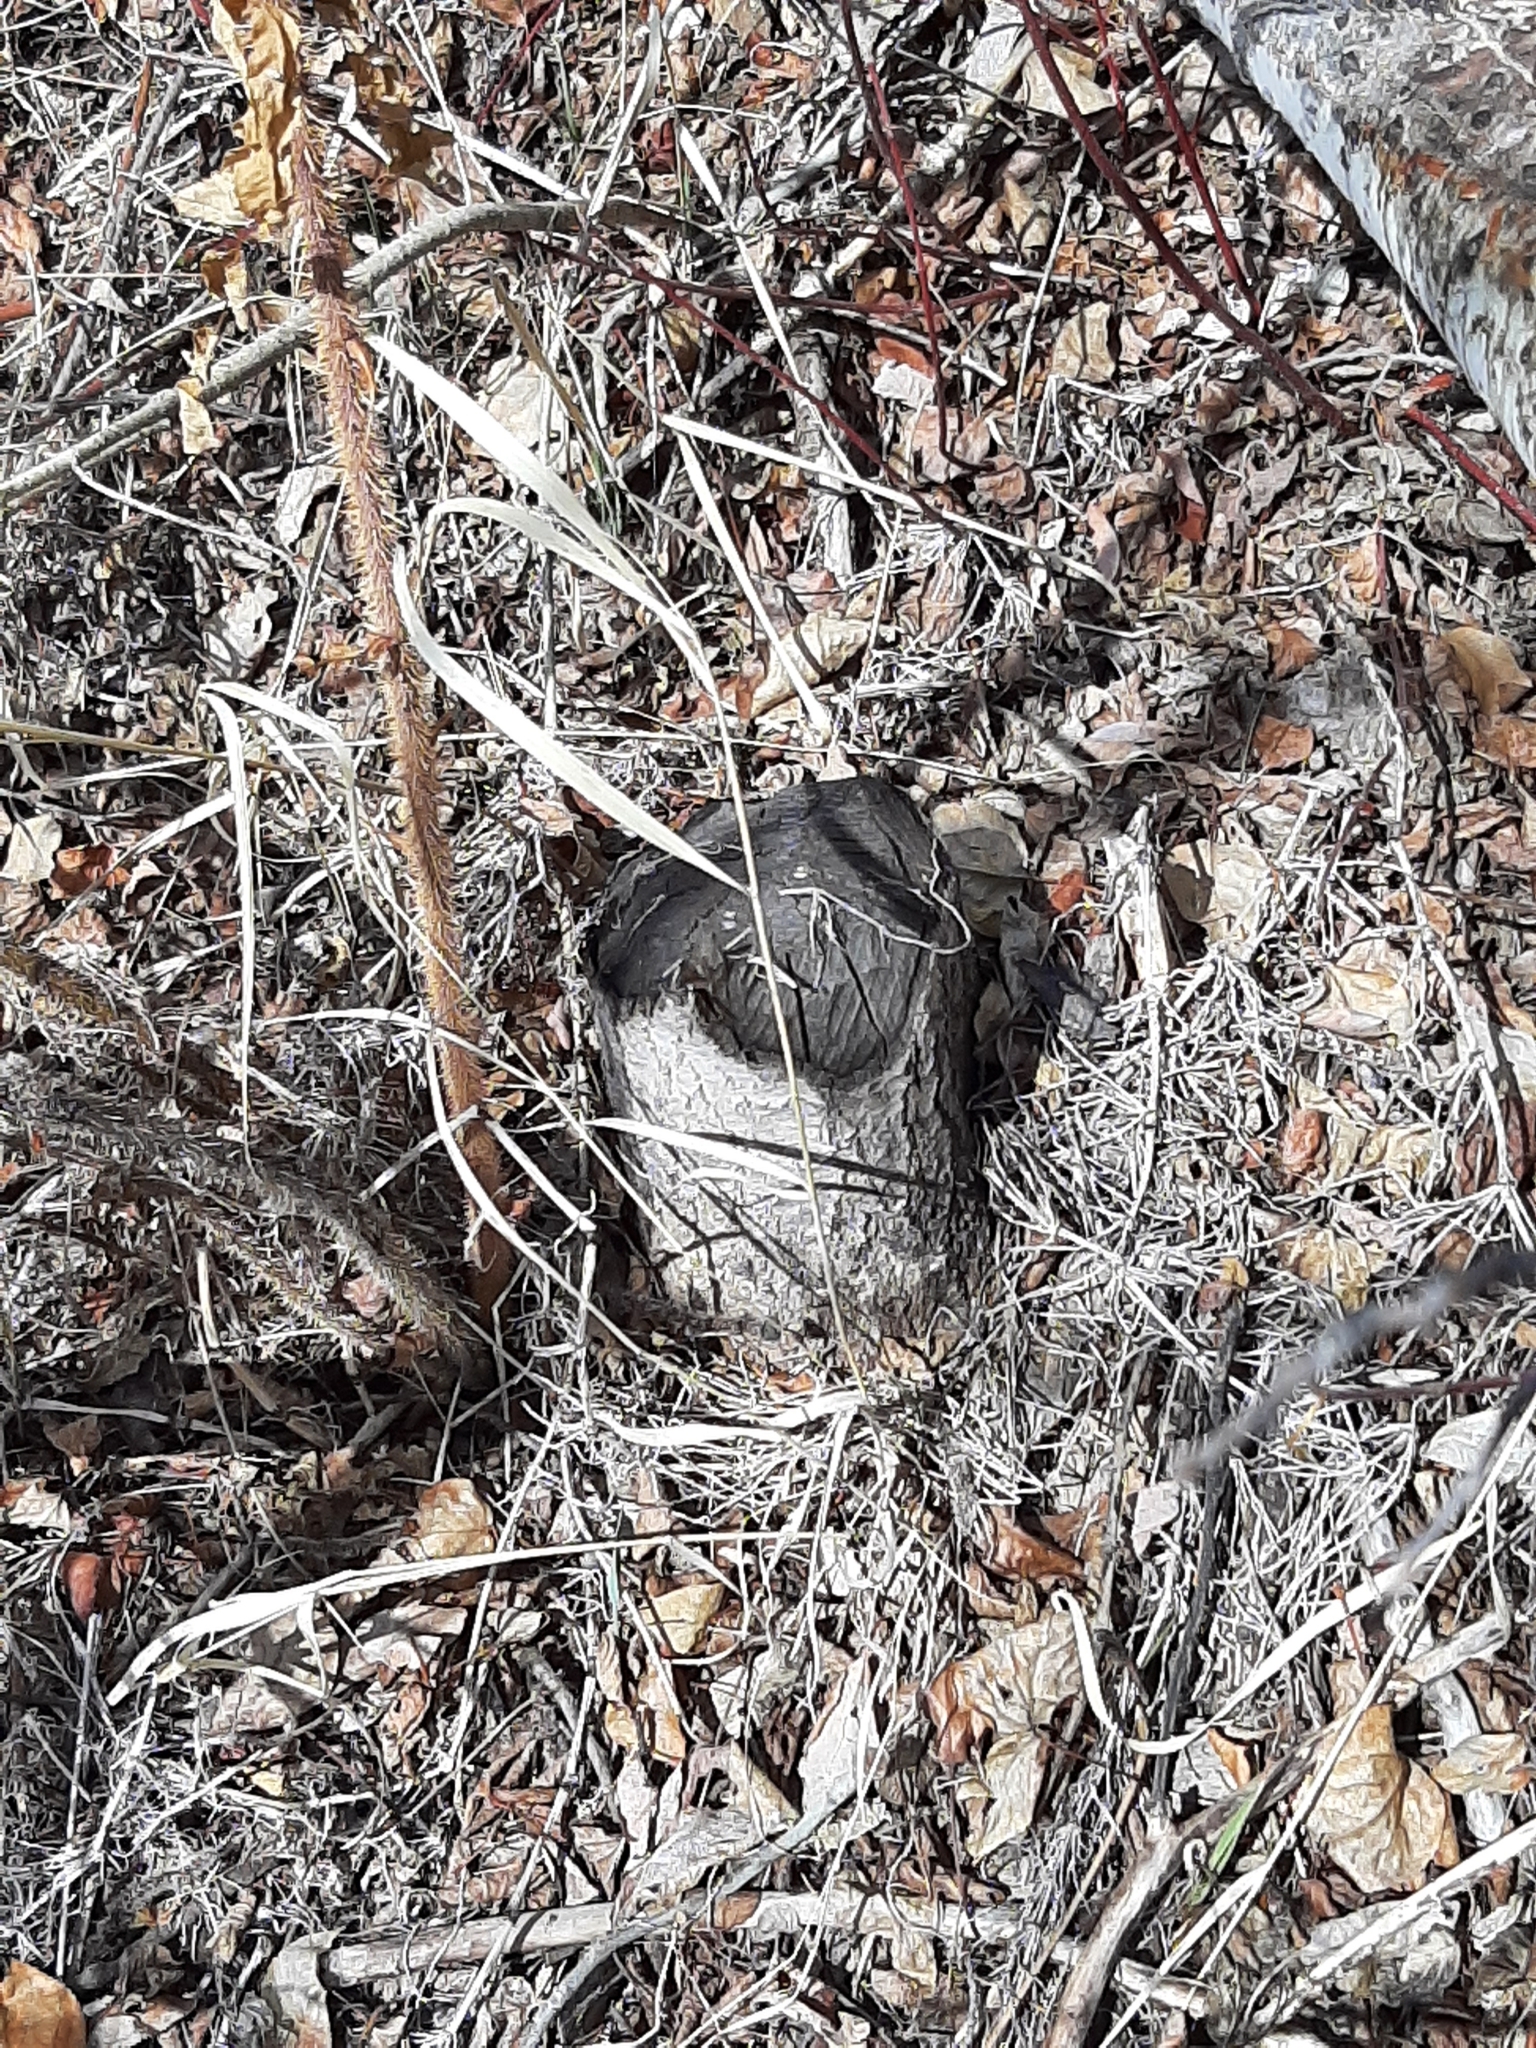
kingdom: Animalia
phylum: Chordata
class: Mammalia
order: Rodentia
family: Castoridae
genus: Castor
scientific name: Castor canadensis
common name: American beaver
